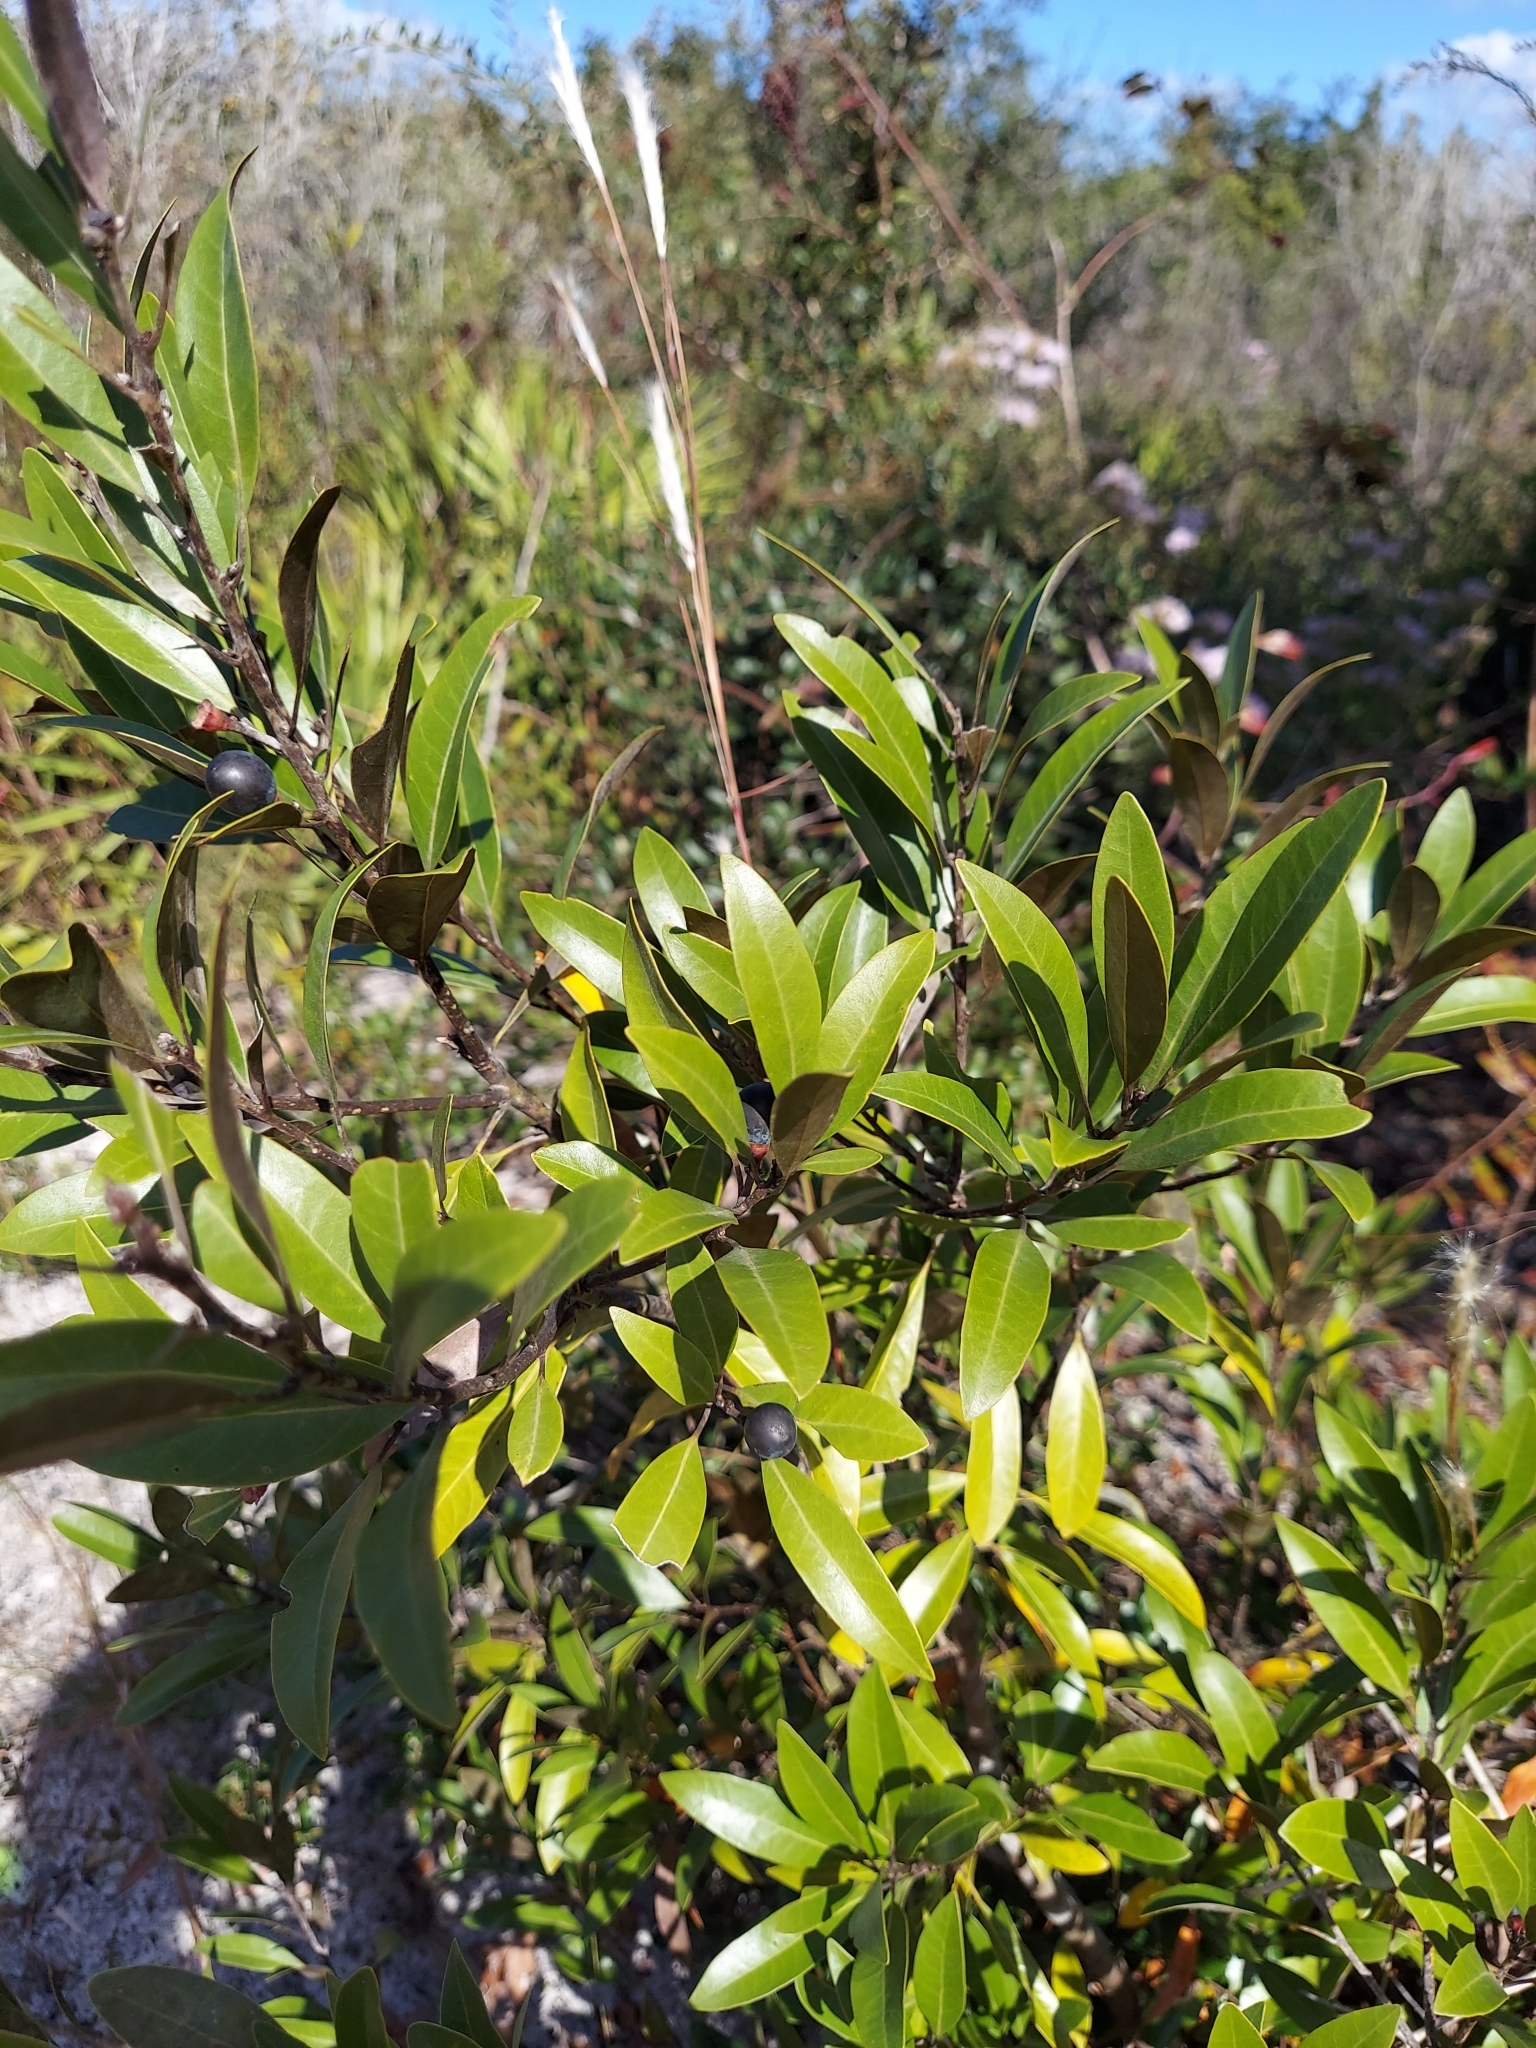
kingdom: Plantae
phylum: Tracheophyta
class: Magnoliopsida
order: Laurales
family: Lauraceae
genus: Persea
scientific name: Persea humilis
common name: Silkbay
